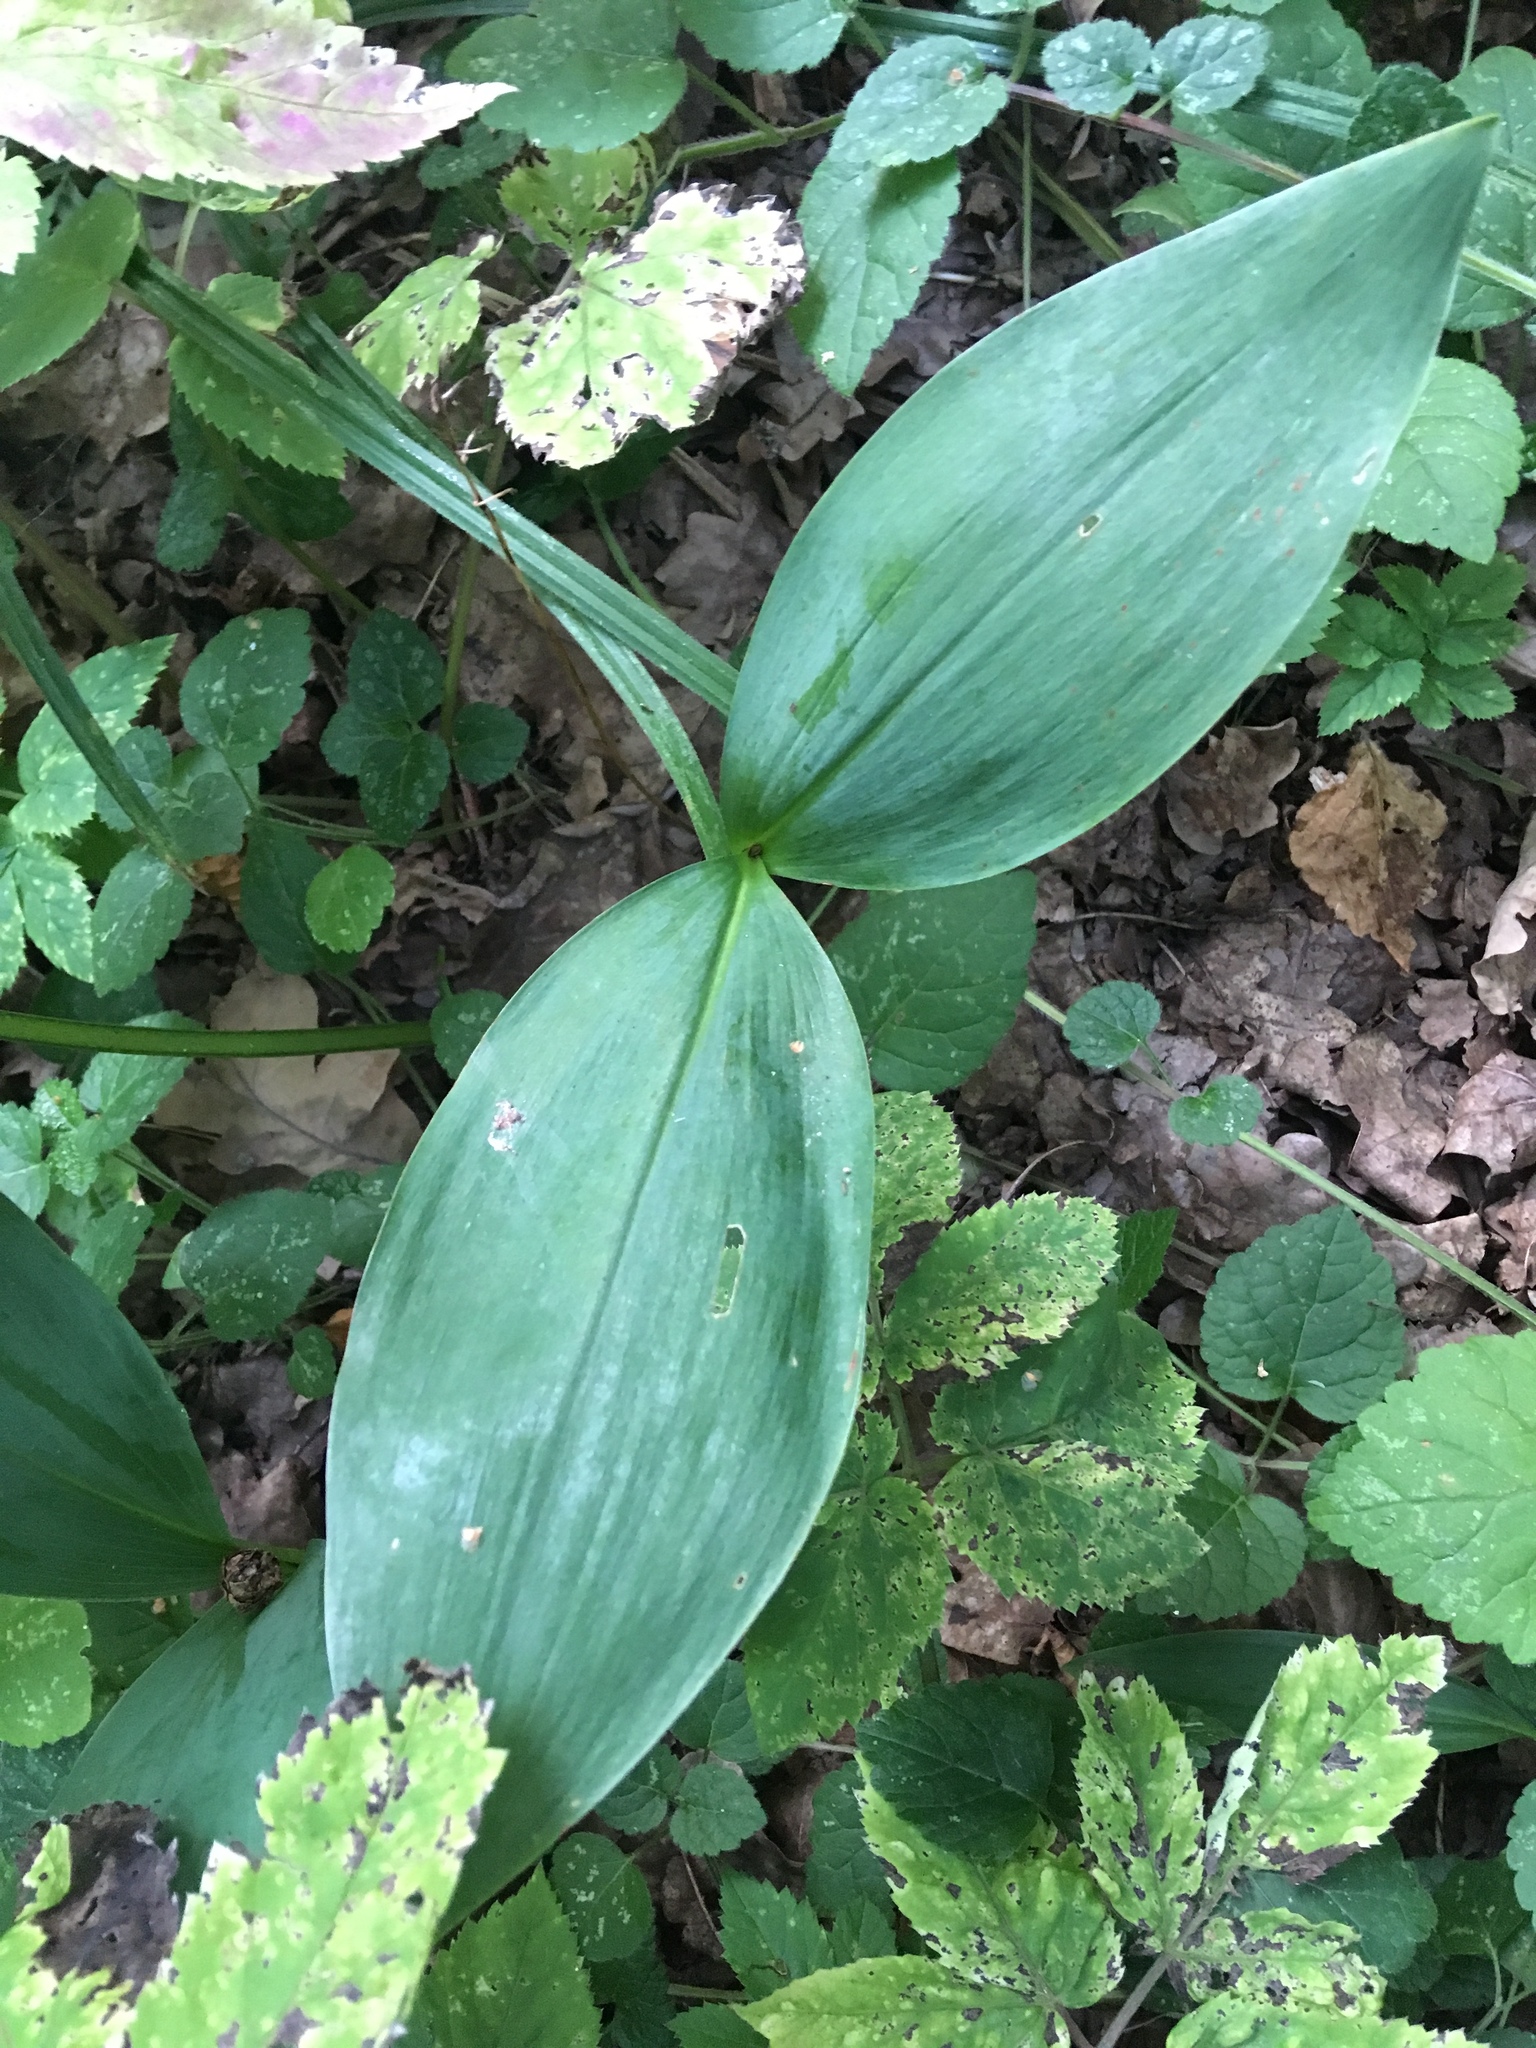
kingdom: Plantae
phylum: Tracheophyta
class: Liliopsida
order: Asparagales
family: Asparagaceae
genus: Convallaria
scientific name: Convallaria majalis
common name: Lily-of-the-valley
